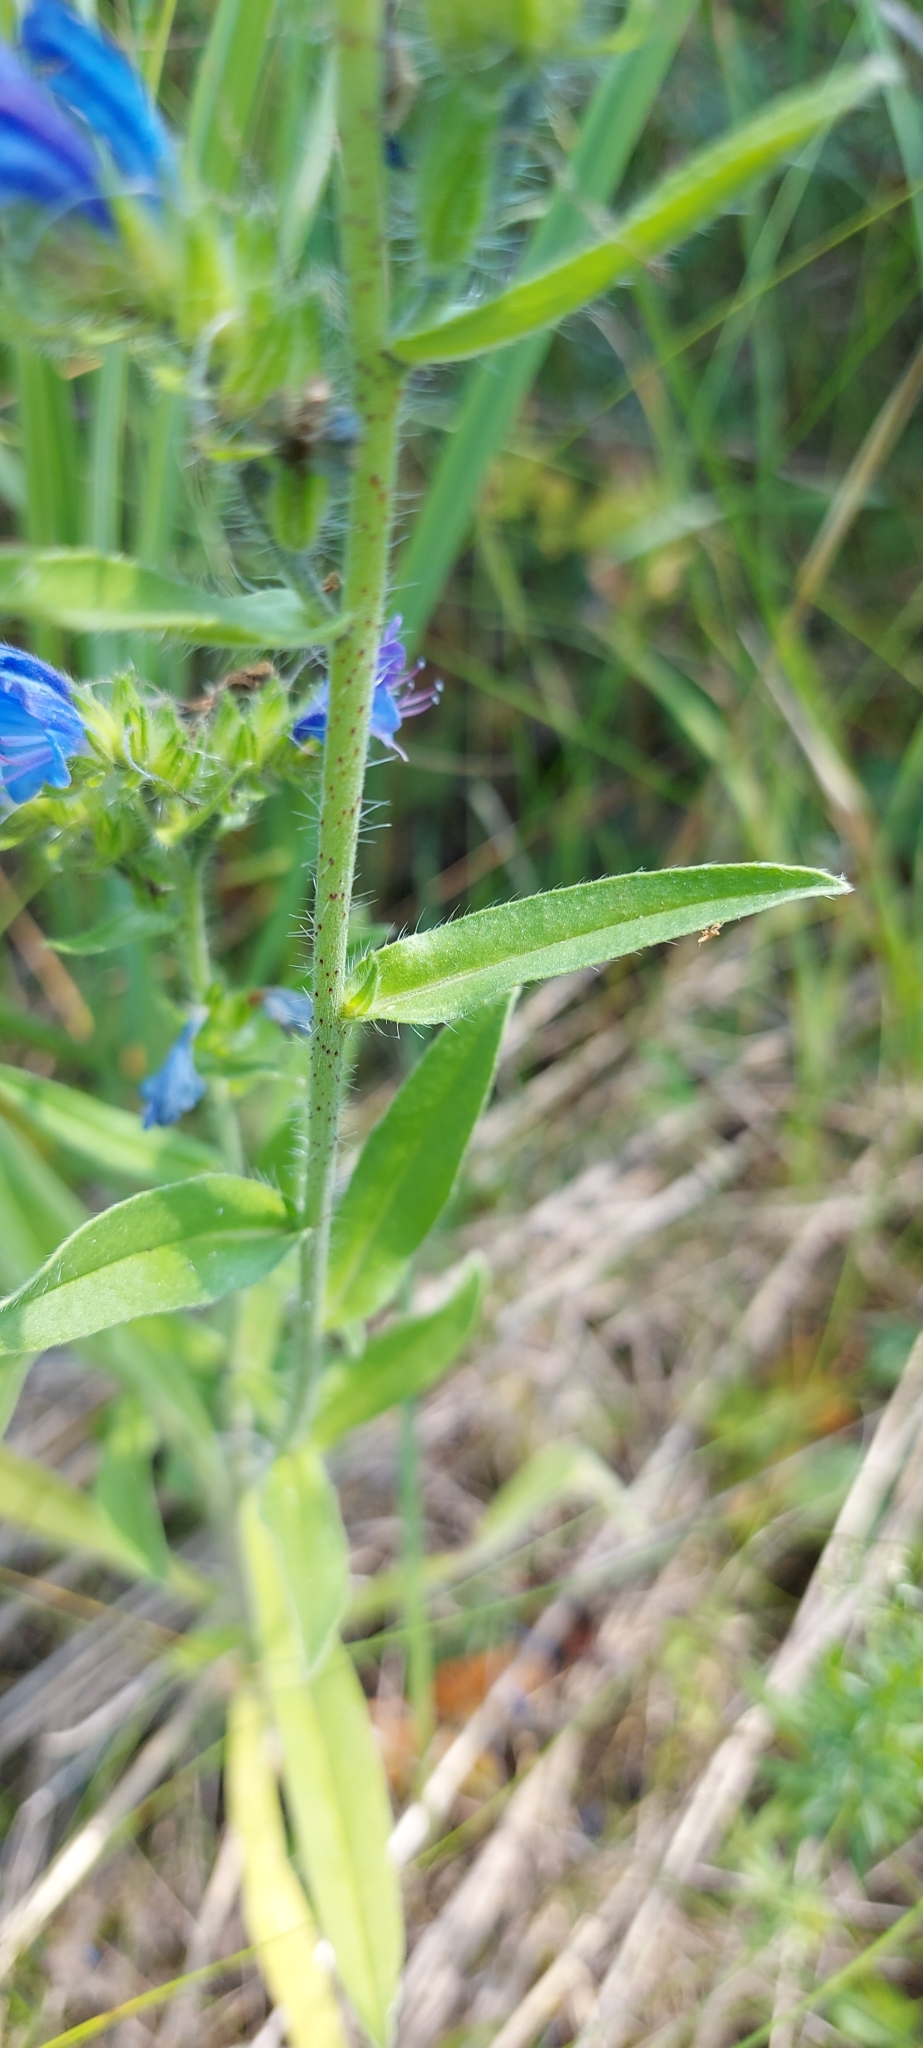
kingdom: Plantae
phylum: Tracheophyta
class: Magnoliopsida
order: Boraginales
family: Boraginaceae
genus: Echium
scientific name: Echium vulgare
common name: Common viper's bugloss
